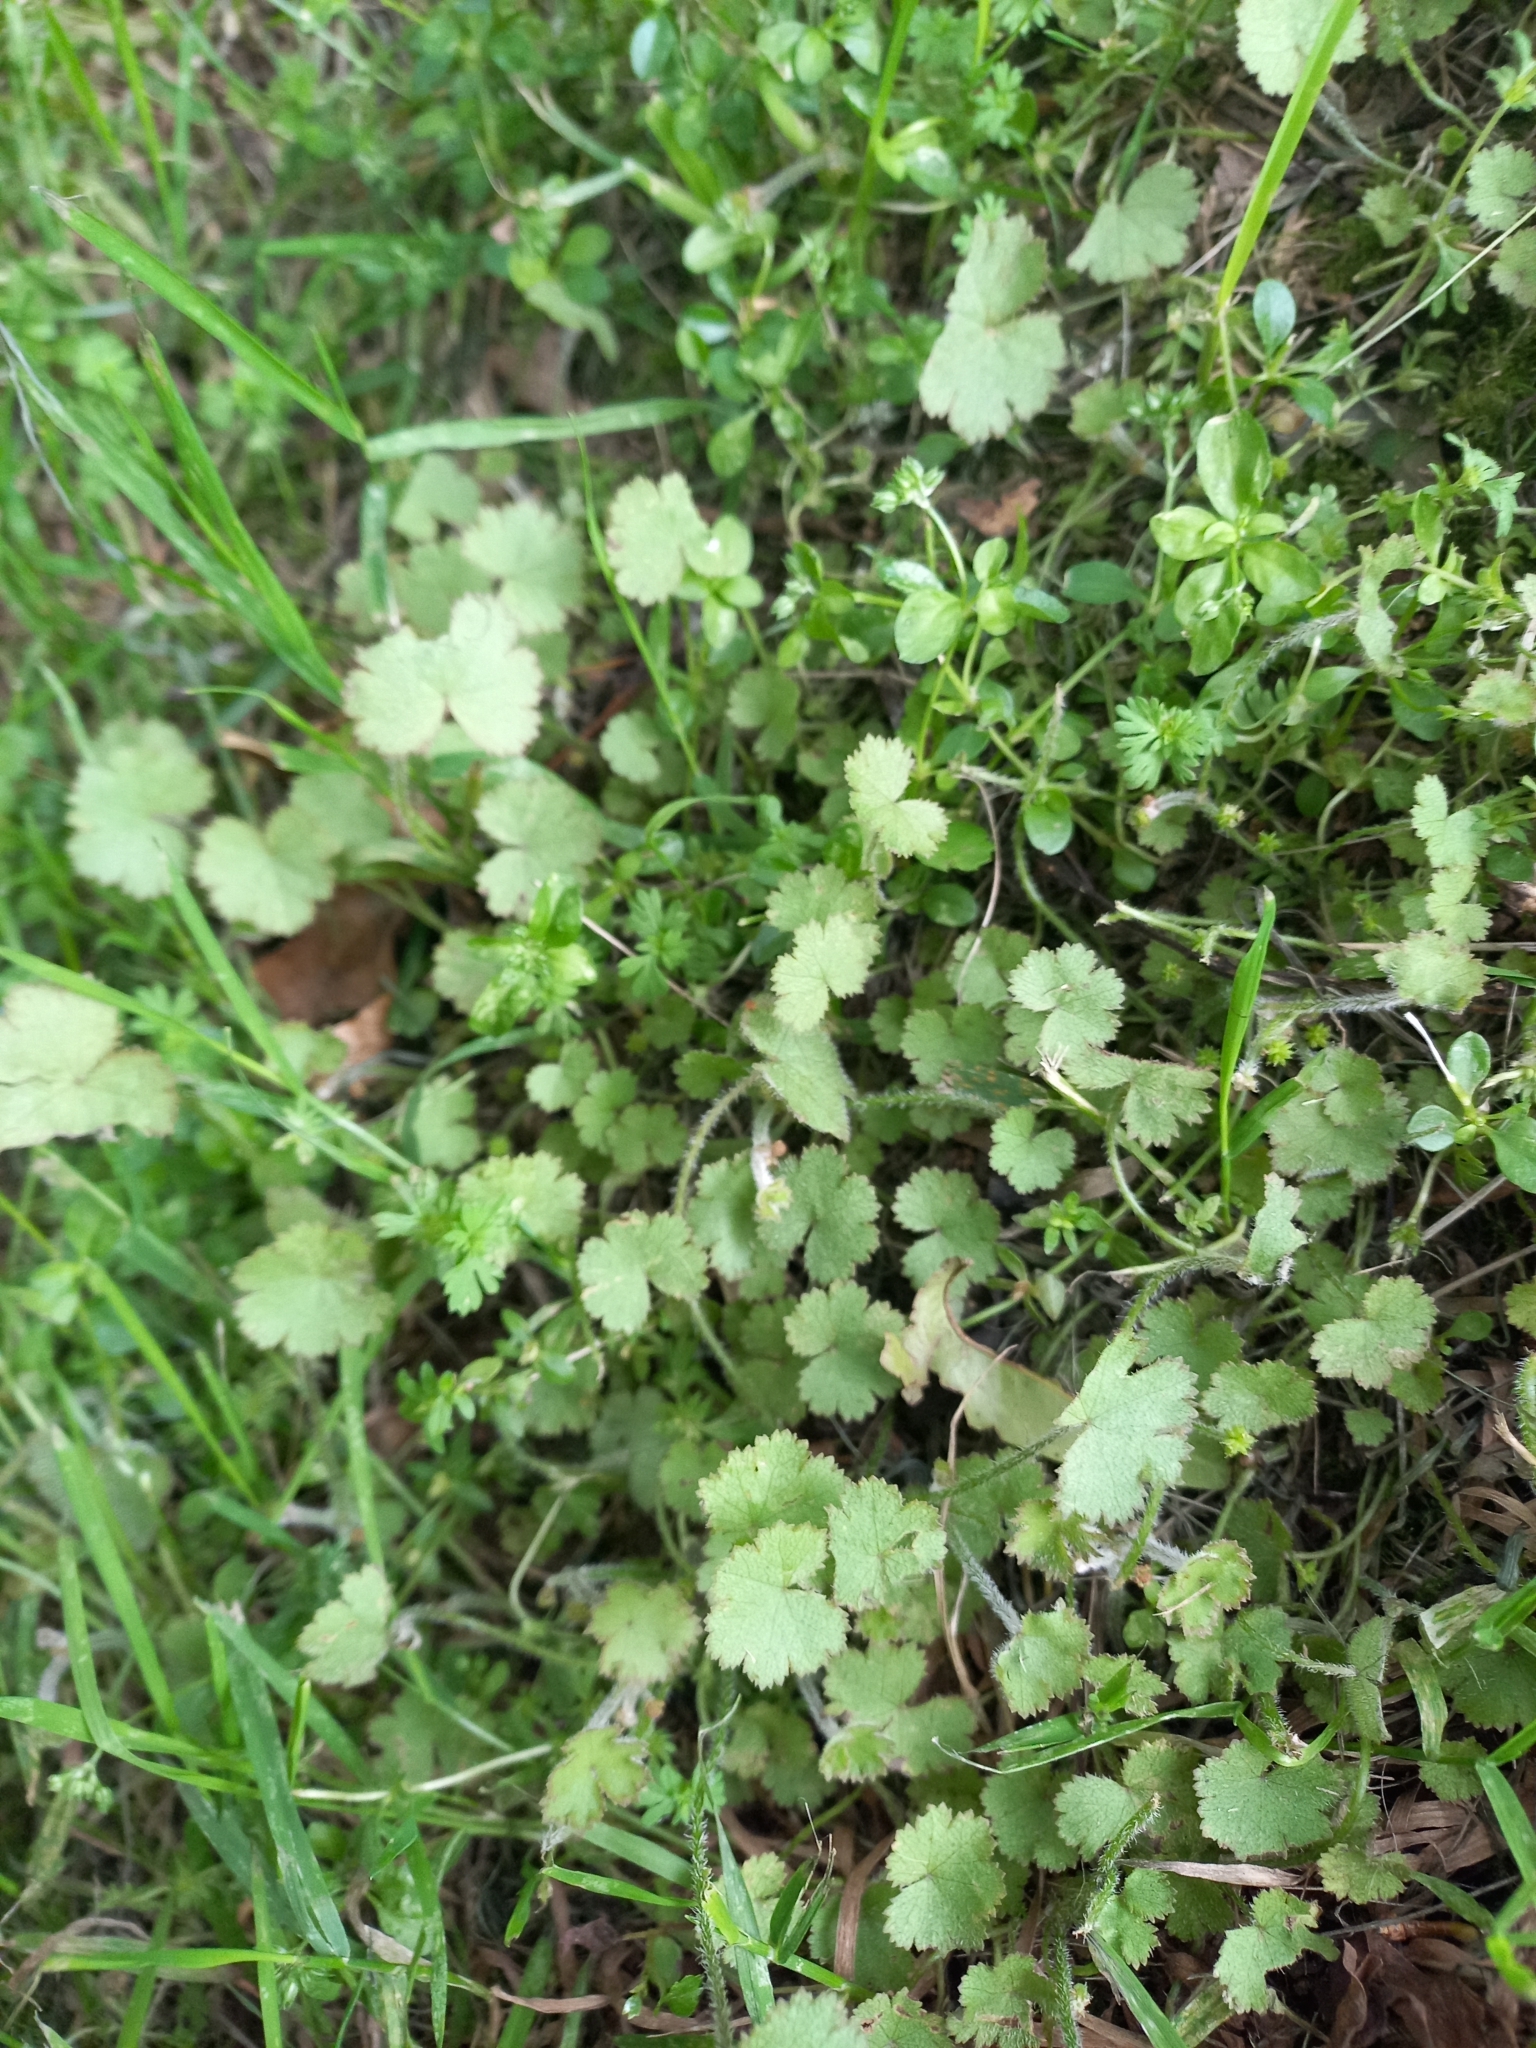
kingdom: Plantae
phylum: Tracheophyta
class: Magnoliopsida
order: Apiales
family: Araliaceae
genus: Hydrocotyle
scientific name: Hydrocotyle moschata
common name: Hairy pennywort
